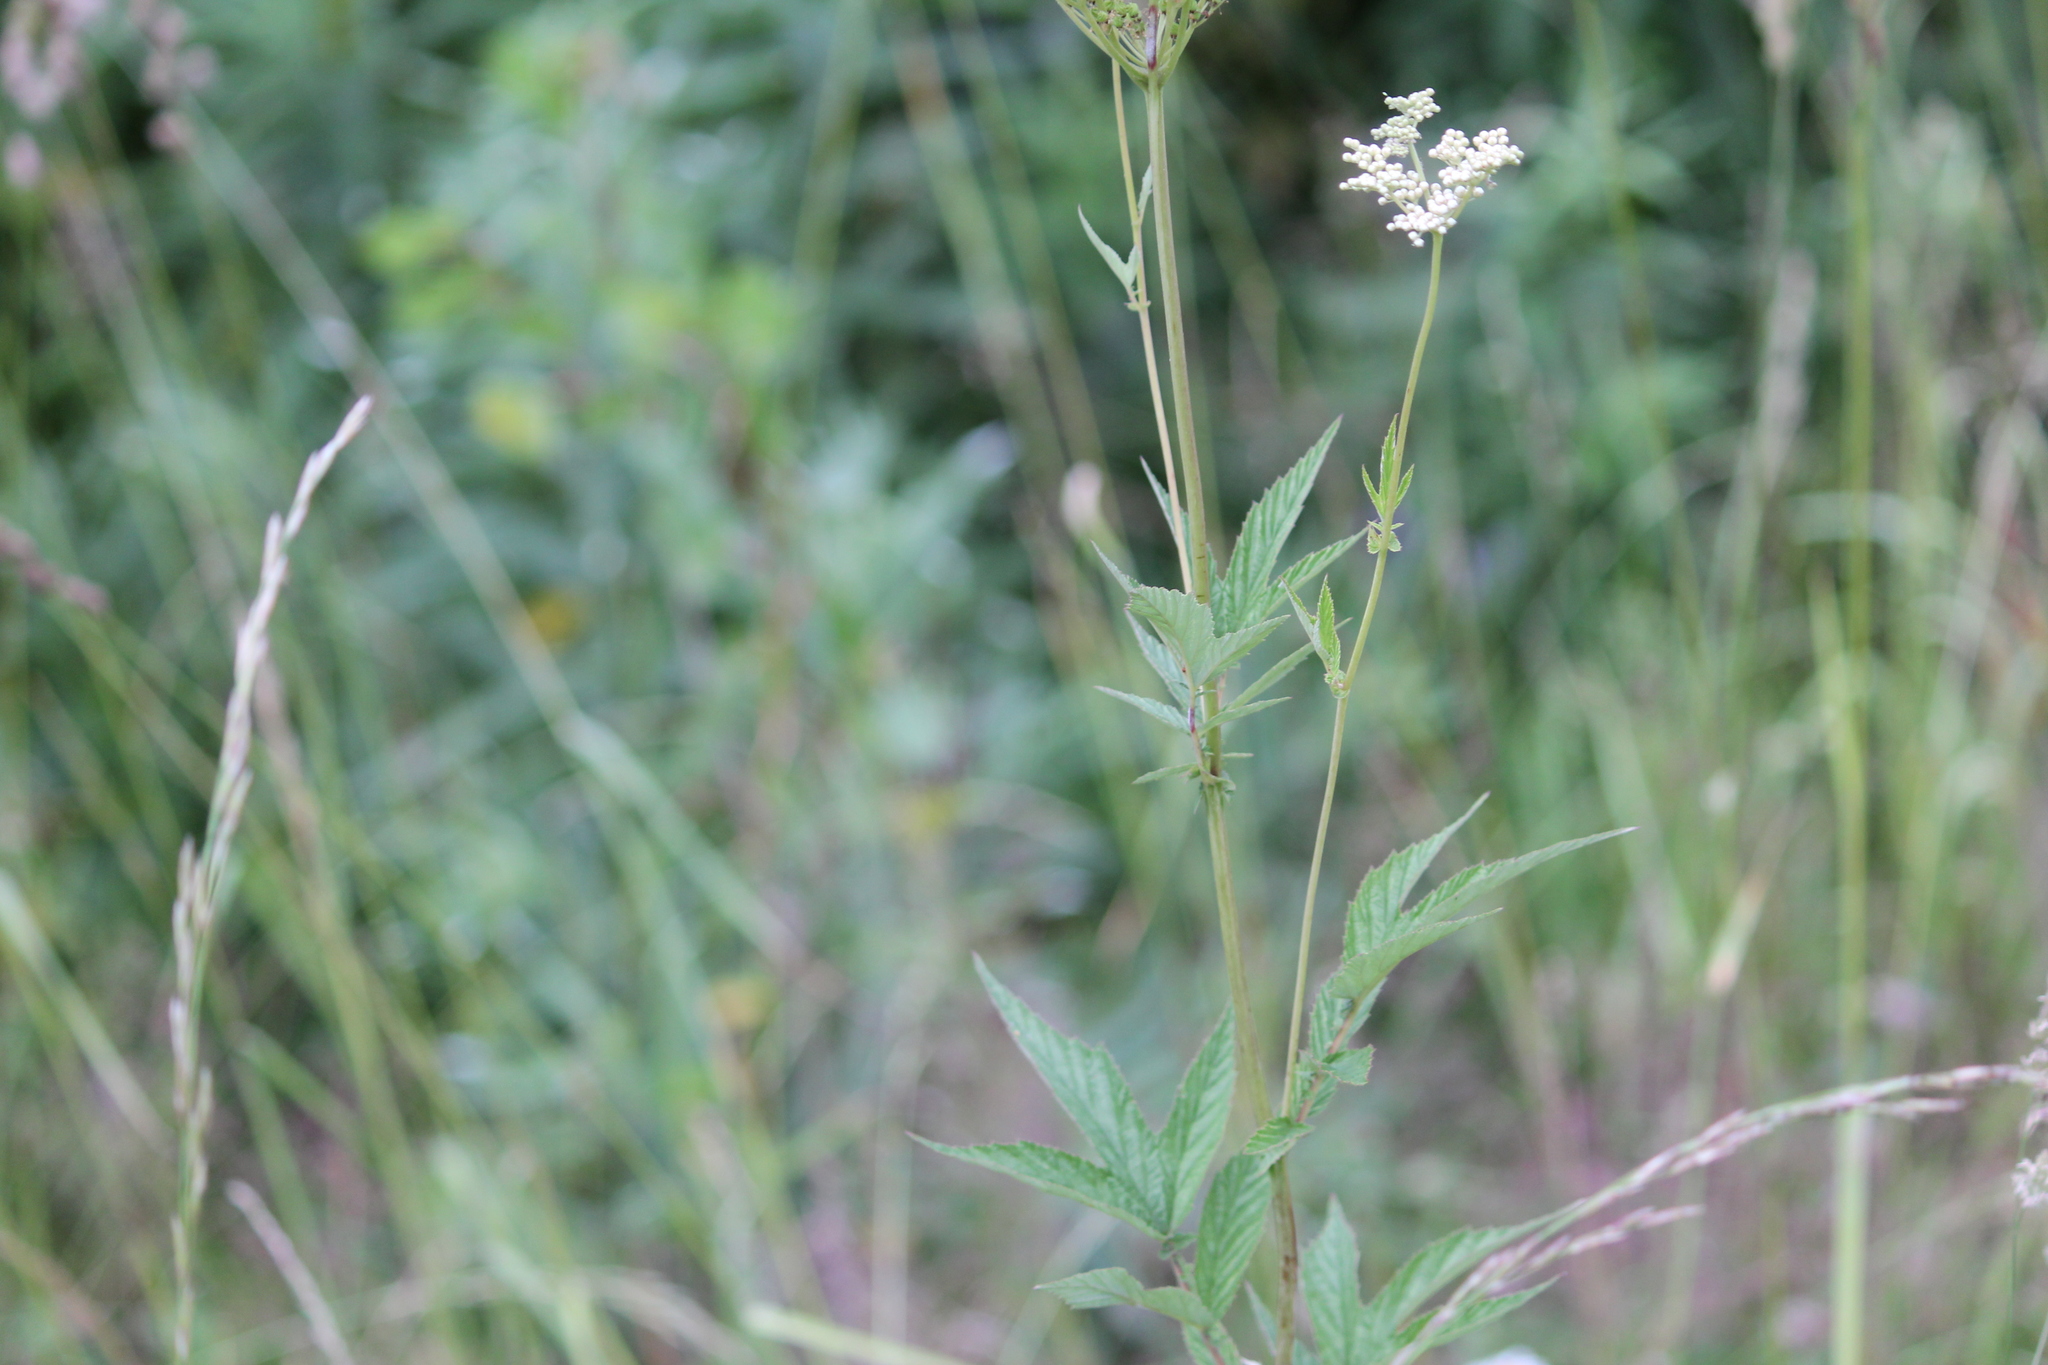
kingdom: Plantae
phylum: Tracheophyta
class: Magnoliopsida
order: Rosales
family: Rosaceae
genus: Filipendula
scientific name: Filipendula ulmaria
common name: Meadowsweet
